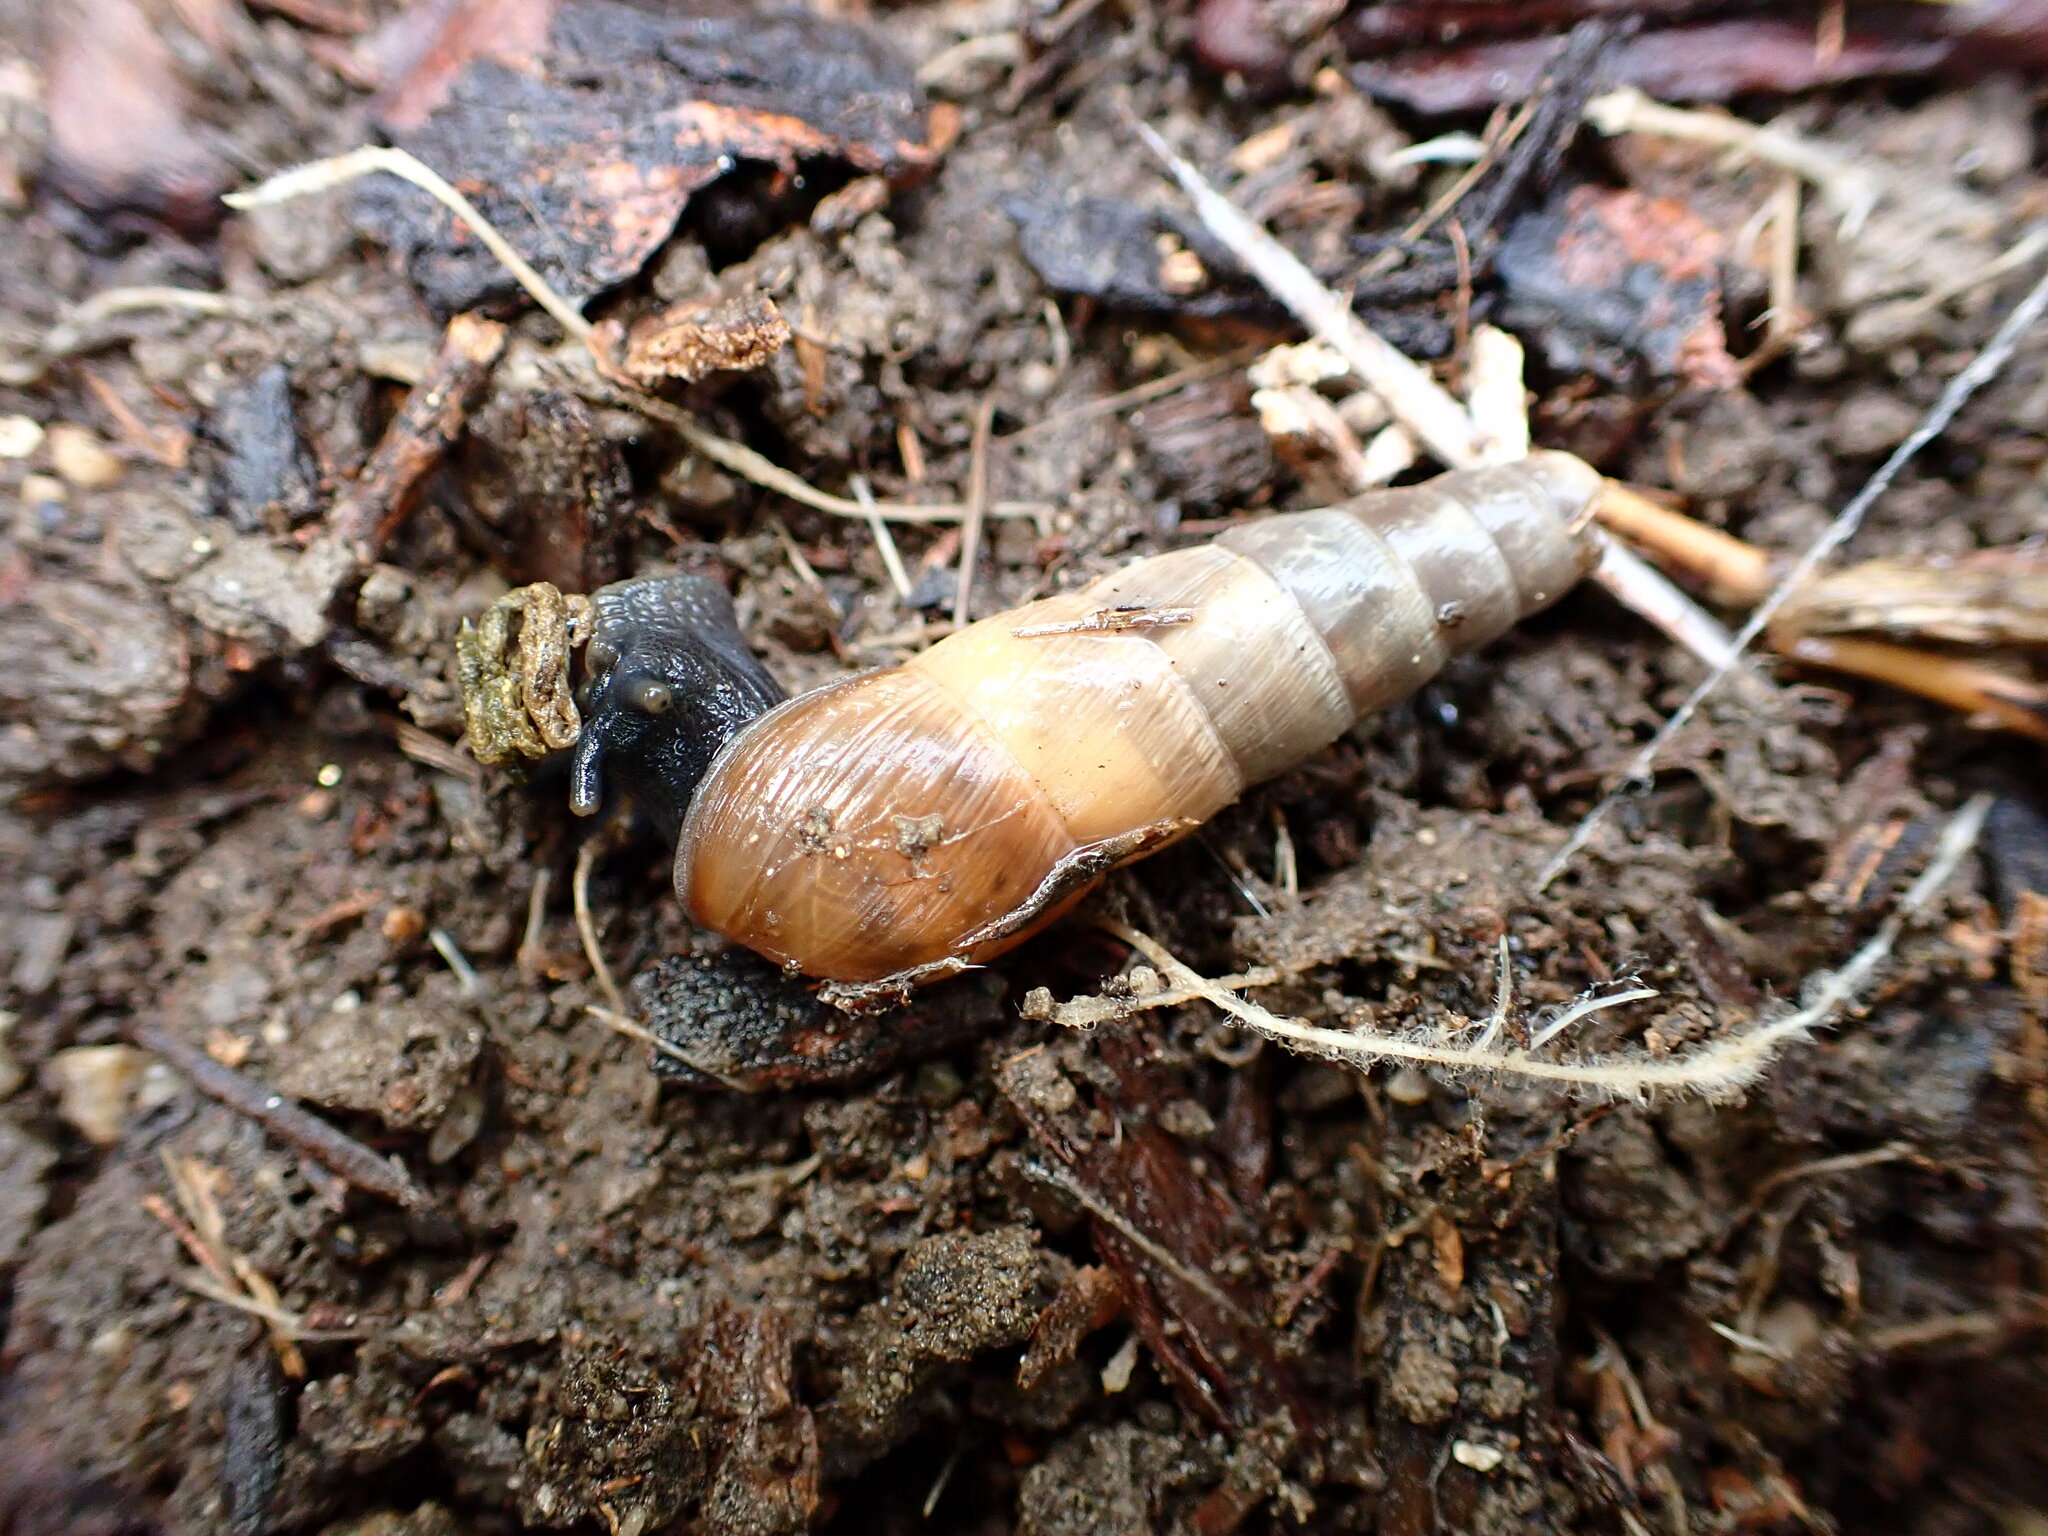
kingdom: Animalia
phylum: Mollusca
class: Gastropoda
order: Stylommatophora
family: Achatinidae
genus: Rumina
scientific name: Rumina decollata
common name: Decollate snail
